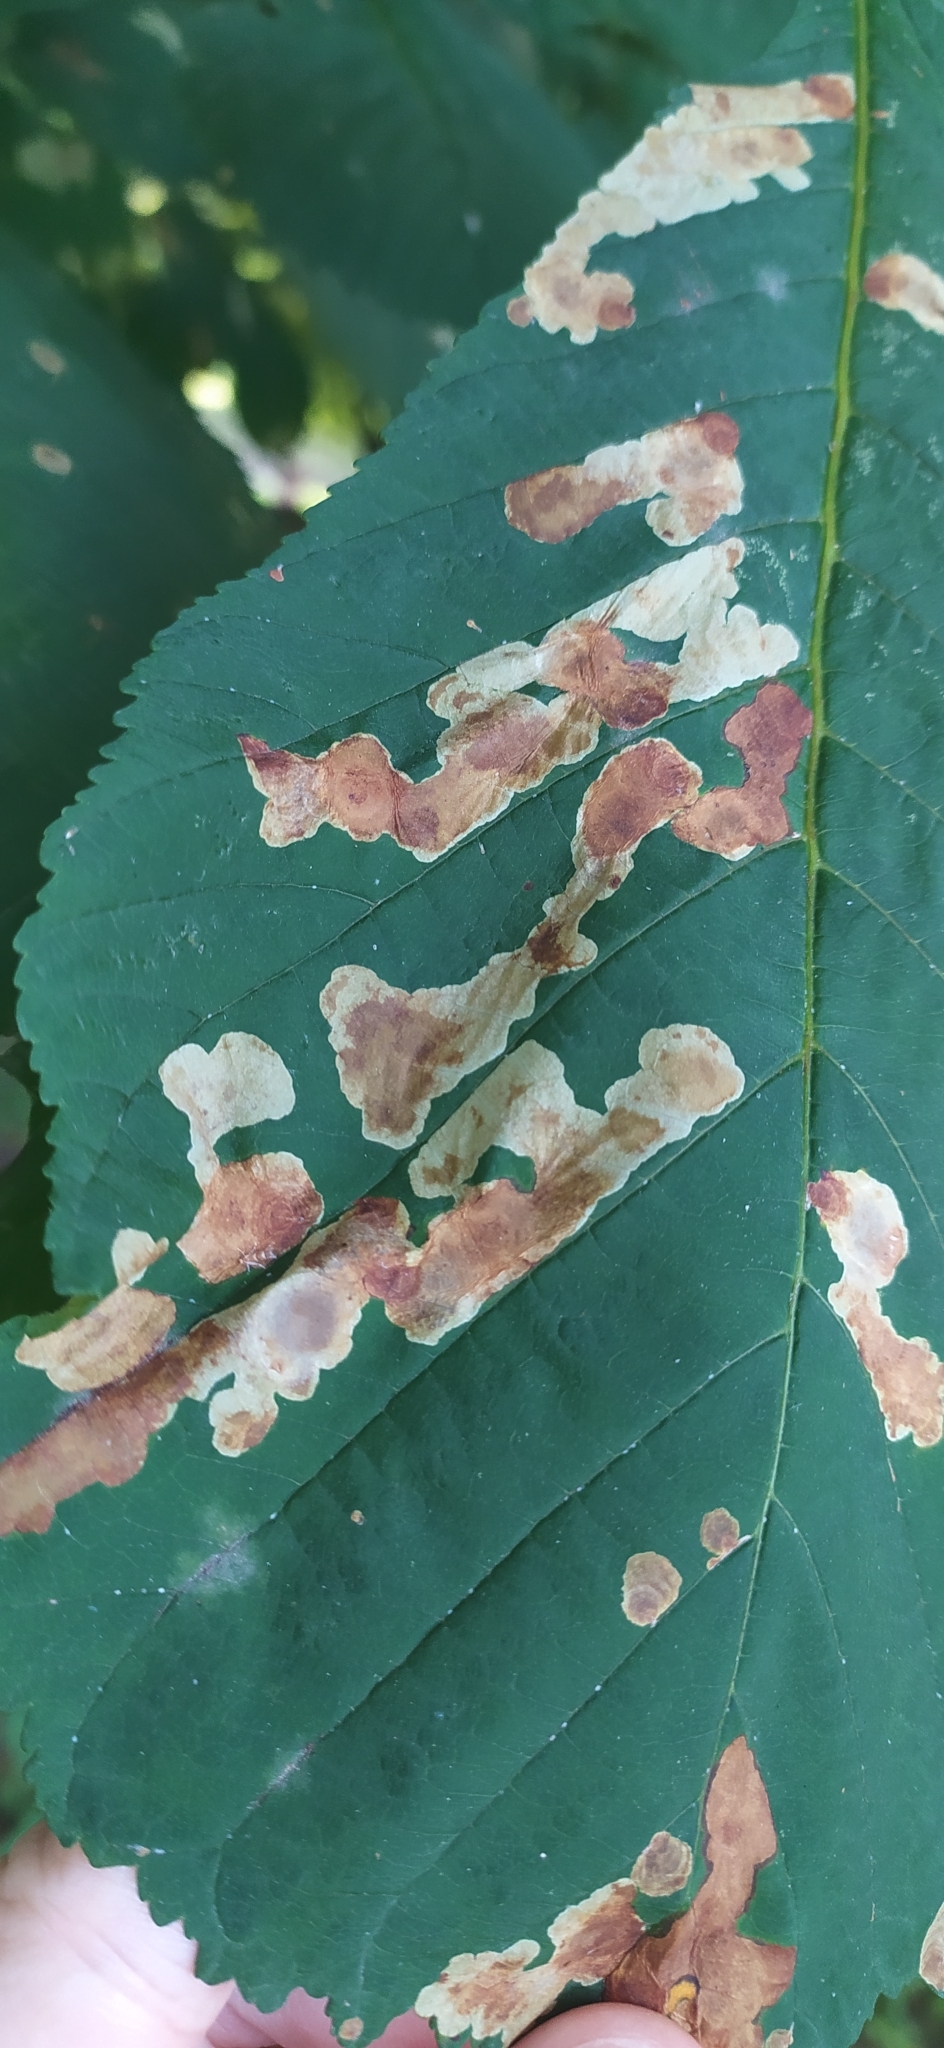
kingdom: Animalia
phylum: Arthropoda
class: Insecta
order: Lepidoptera
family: Gracillariidae
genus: Cameraria
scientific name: Cameraria ohridella
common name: Horse-chestnut leaf-miner
